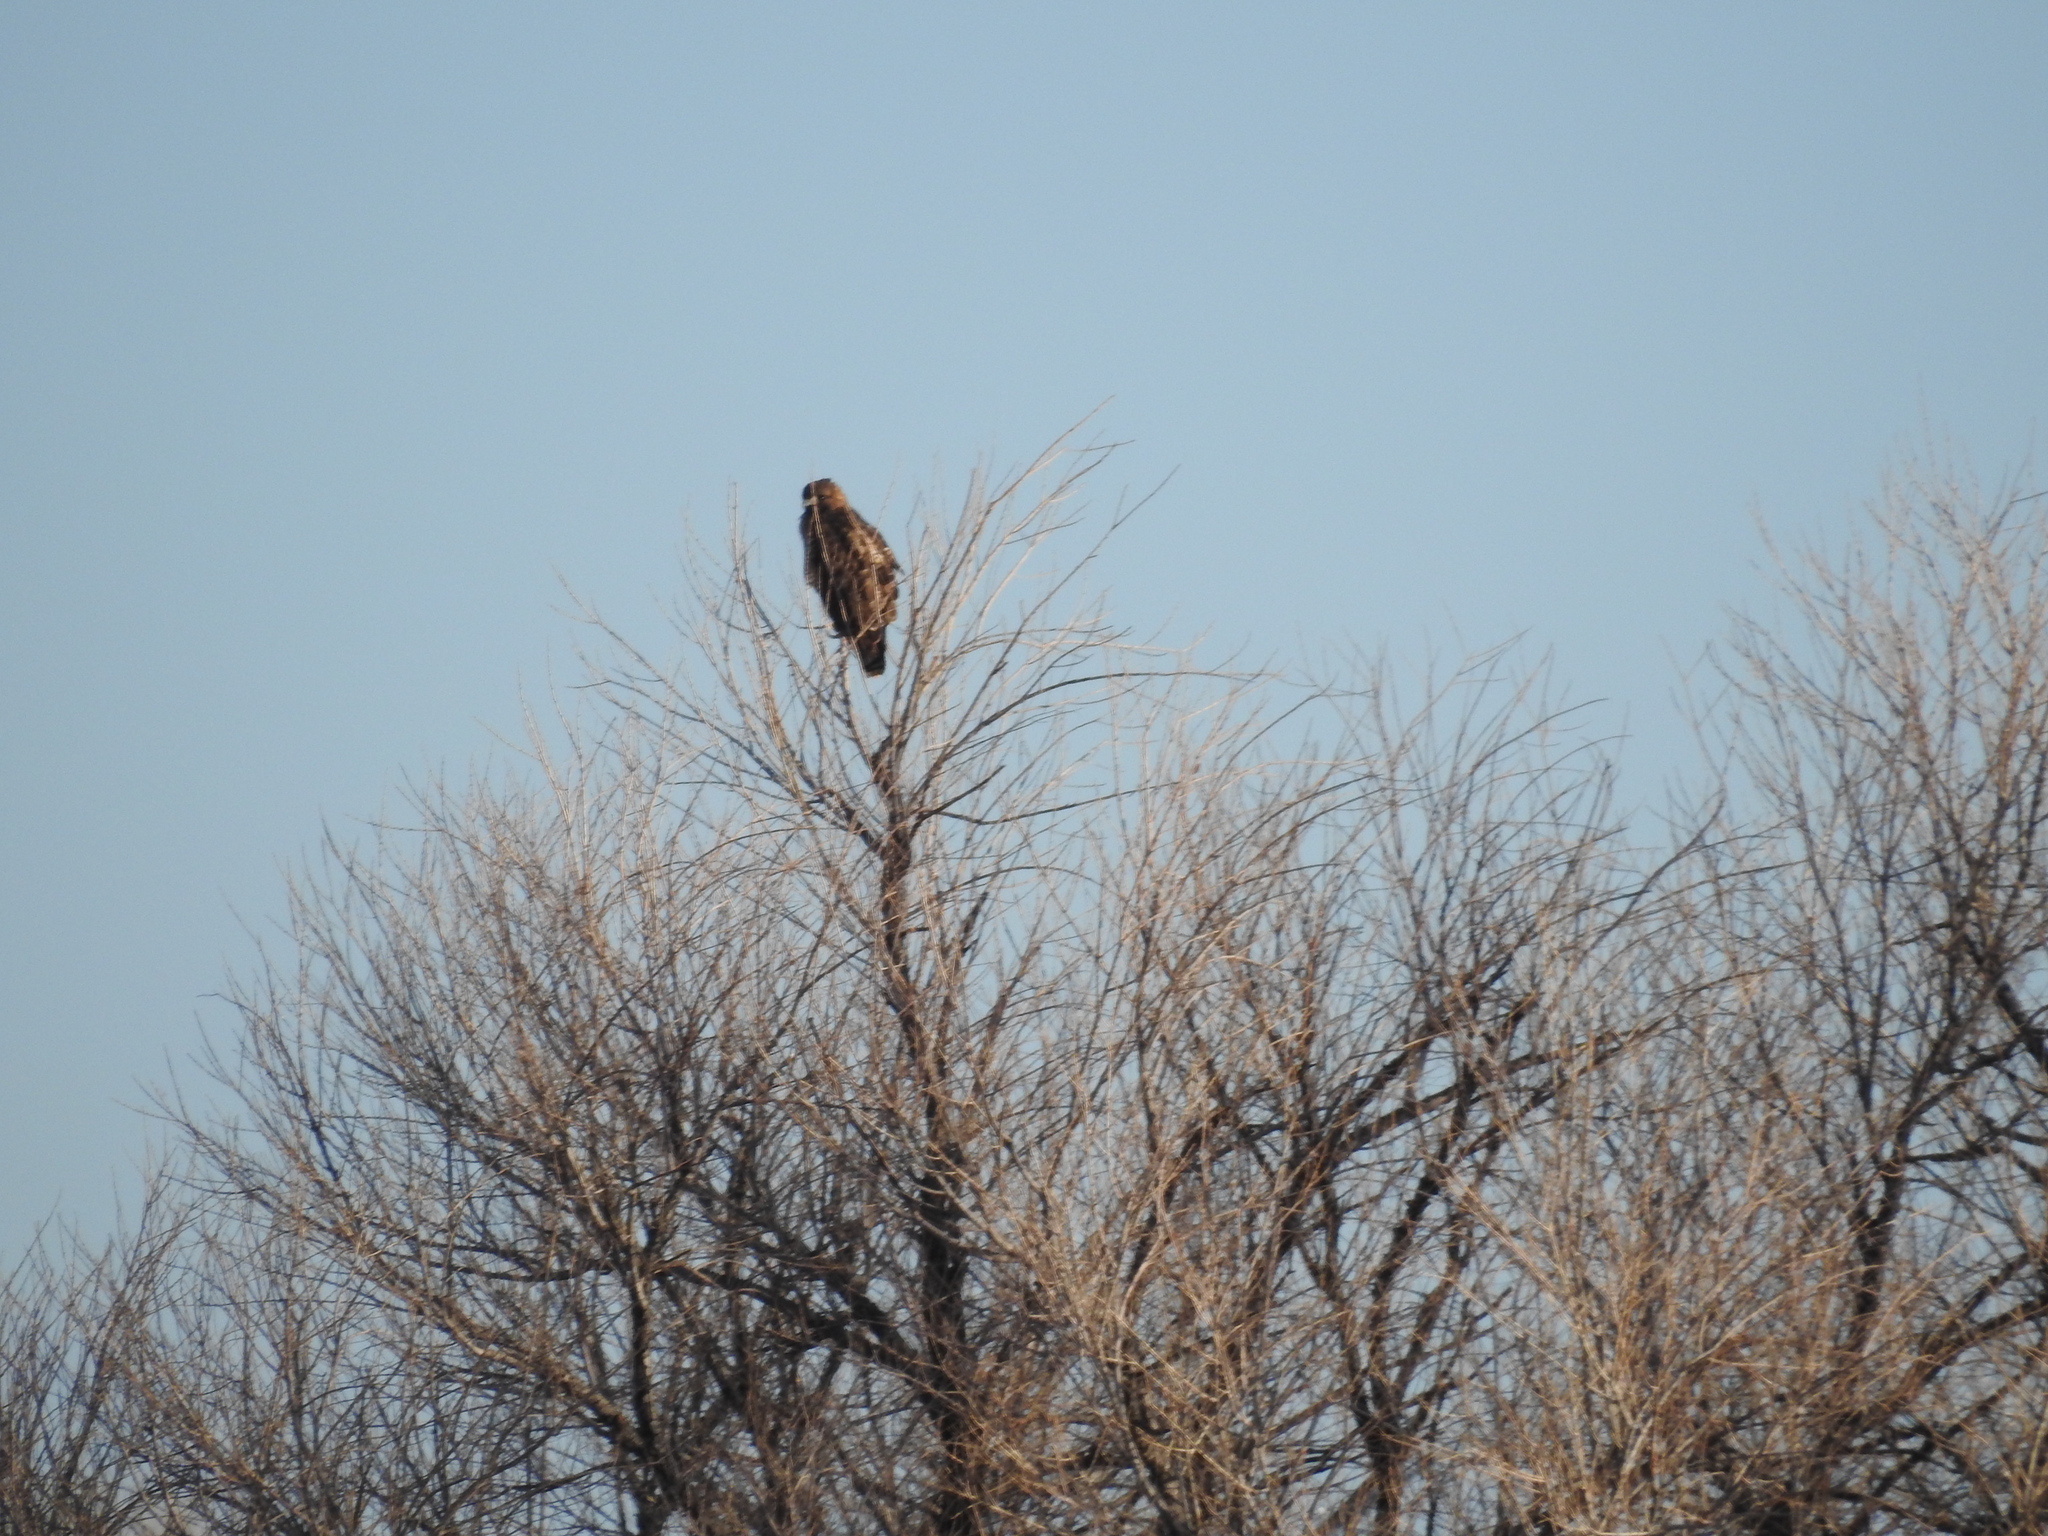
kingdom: Animalia
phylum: Chordata
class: Aves
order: Accipitriformes
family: Accipitridae
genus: Buteo
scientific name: Buteo jamaicensis
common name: Red-tailed hawk
